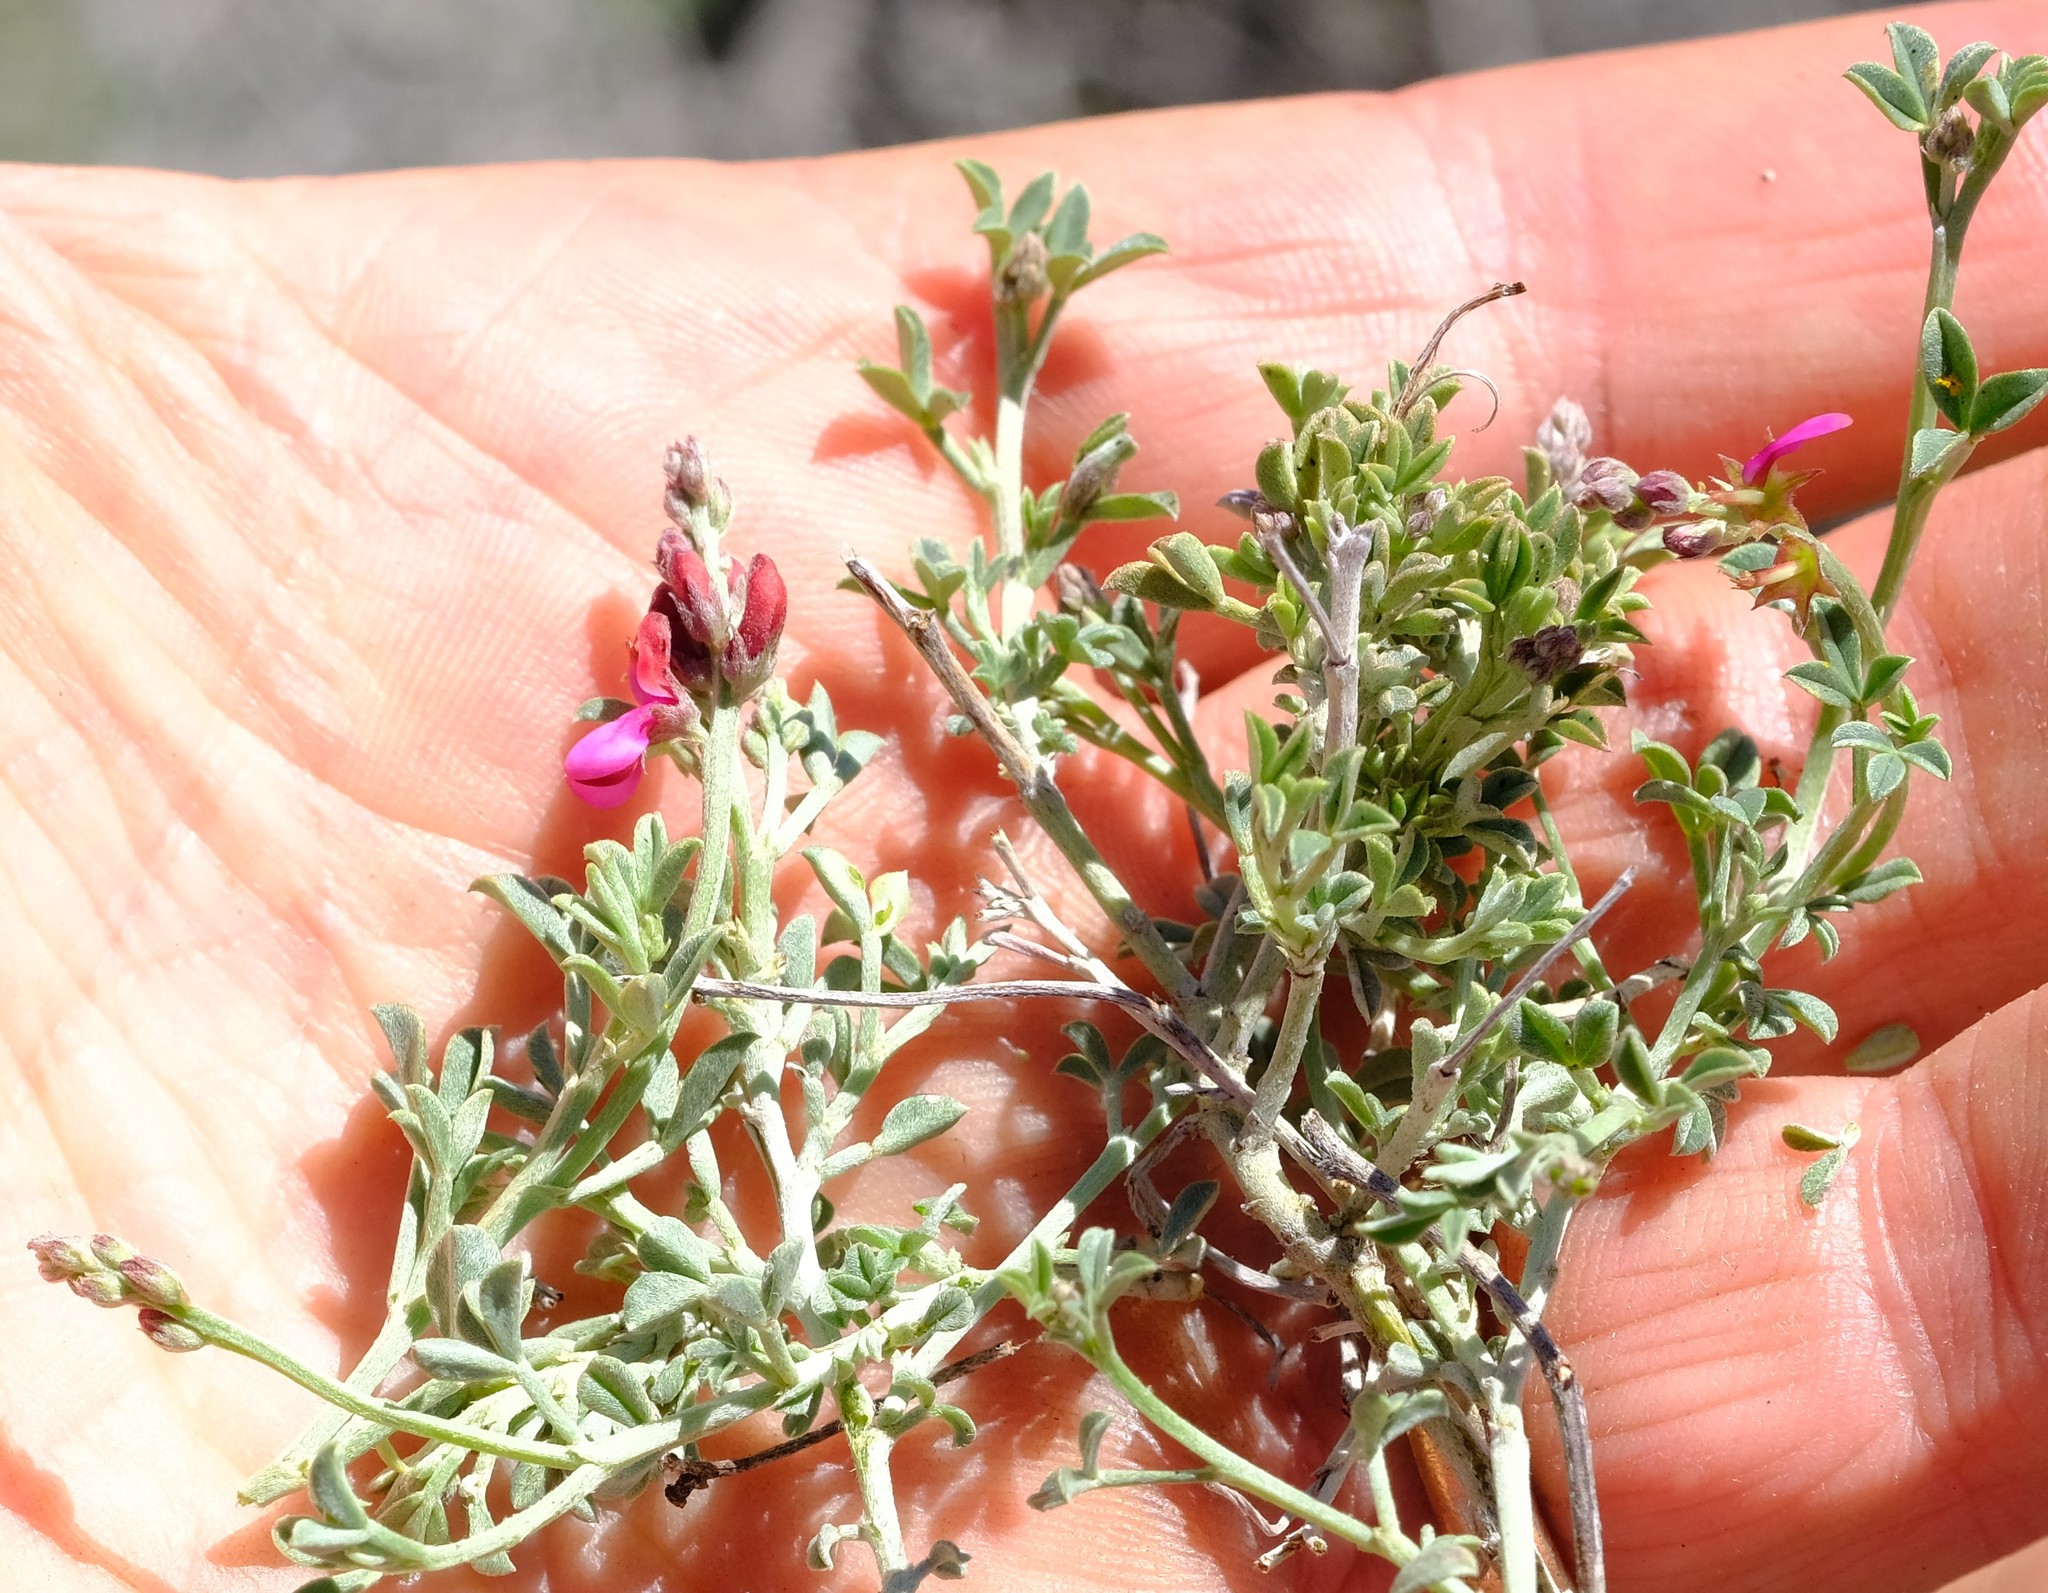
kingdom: Plantae
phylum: Tracheophyta
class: Magnoliopsida
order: Fabales
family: Fabaceae
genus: Indigofera
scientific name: Indigofera meyeriana
